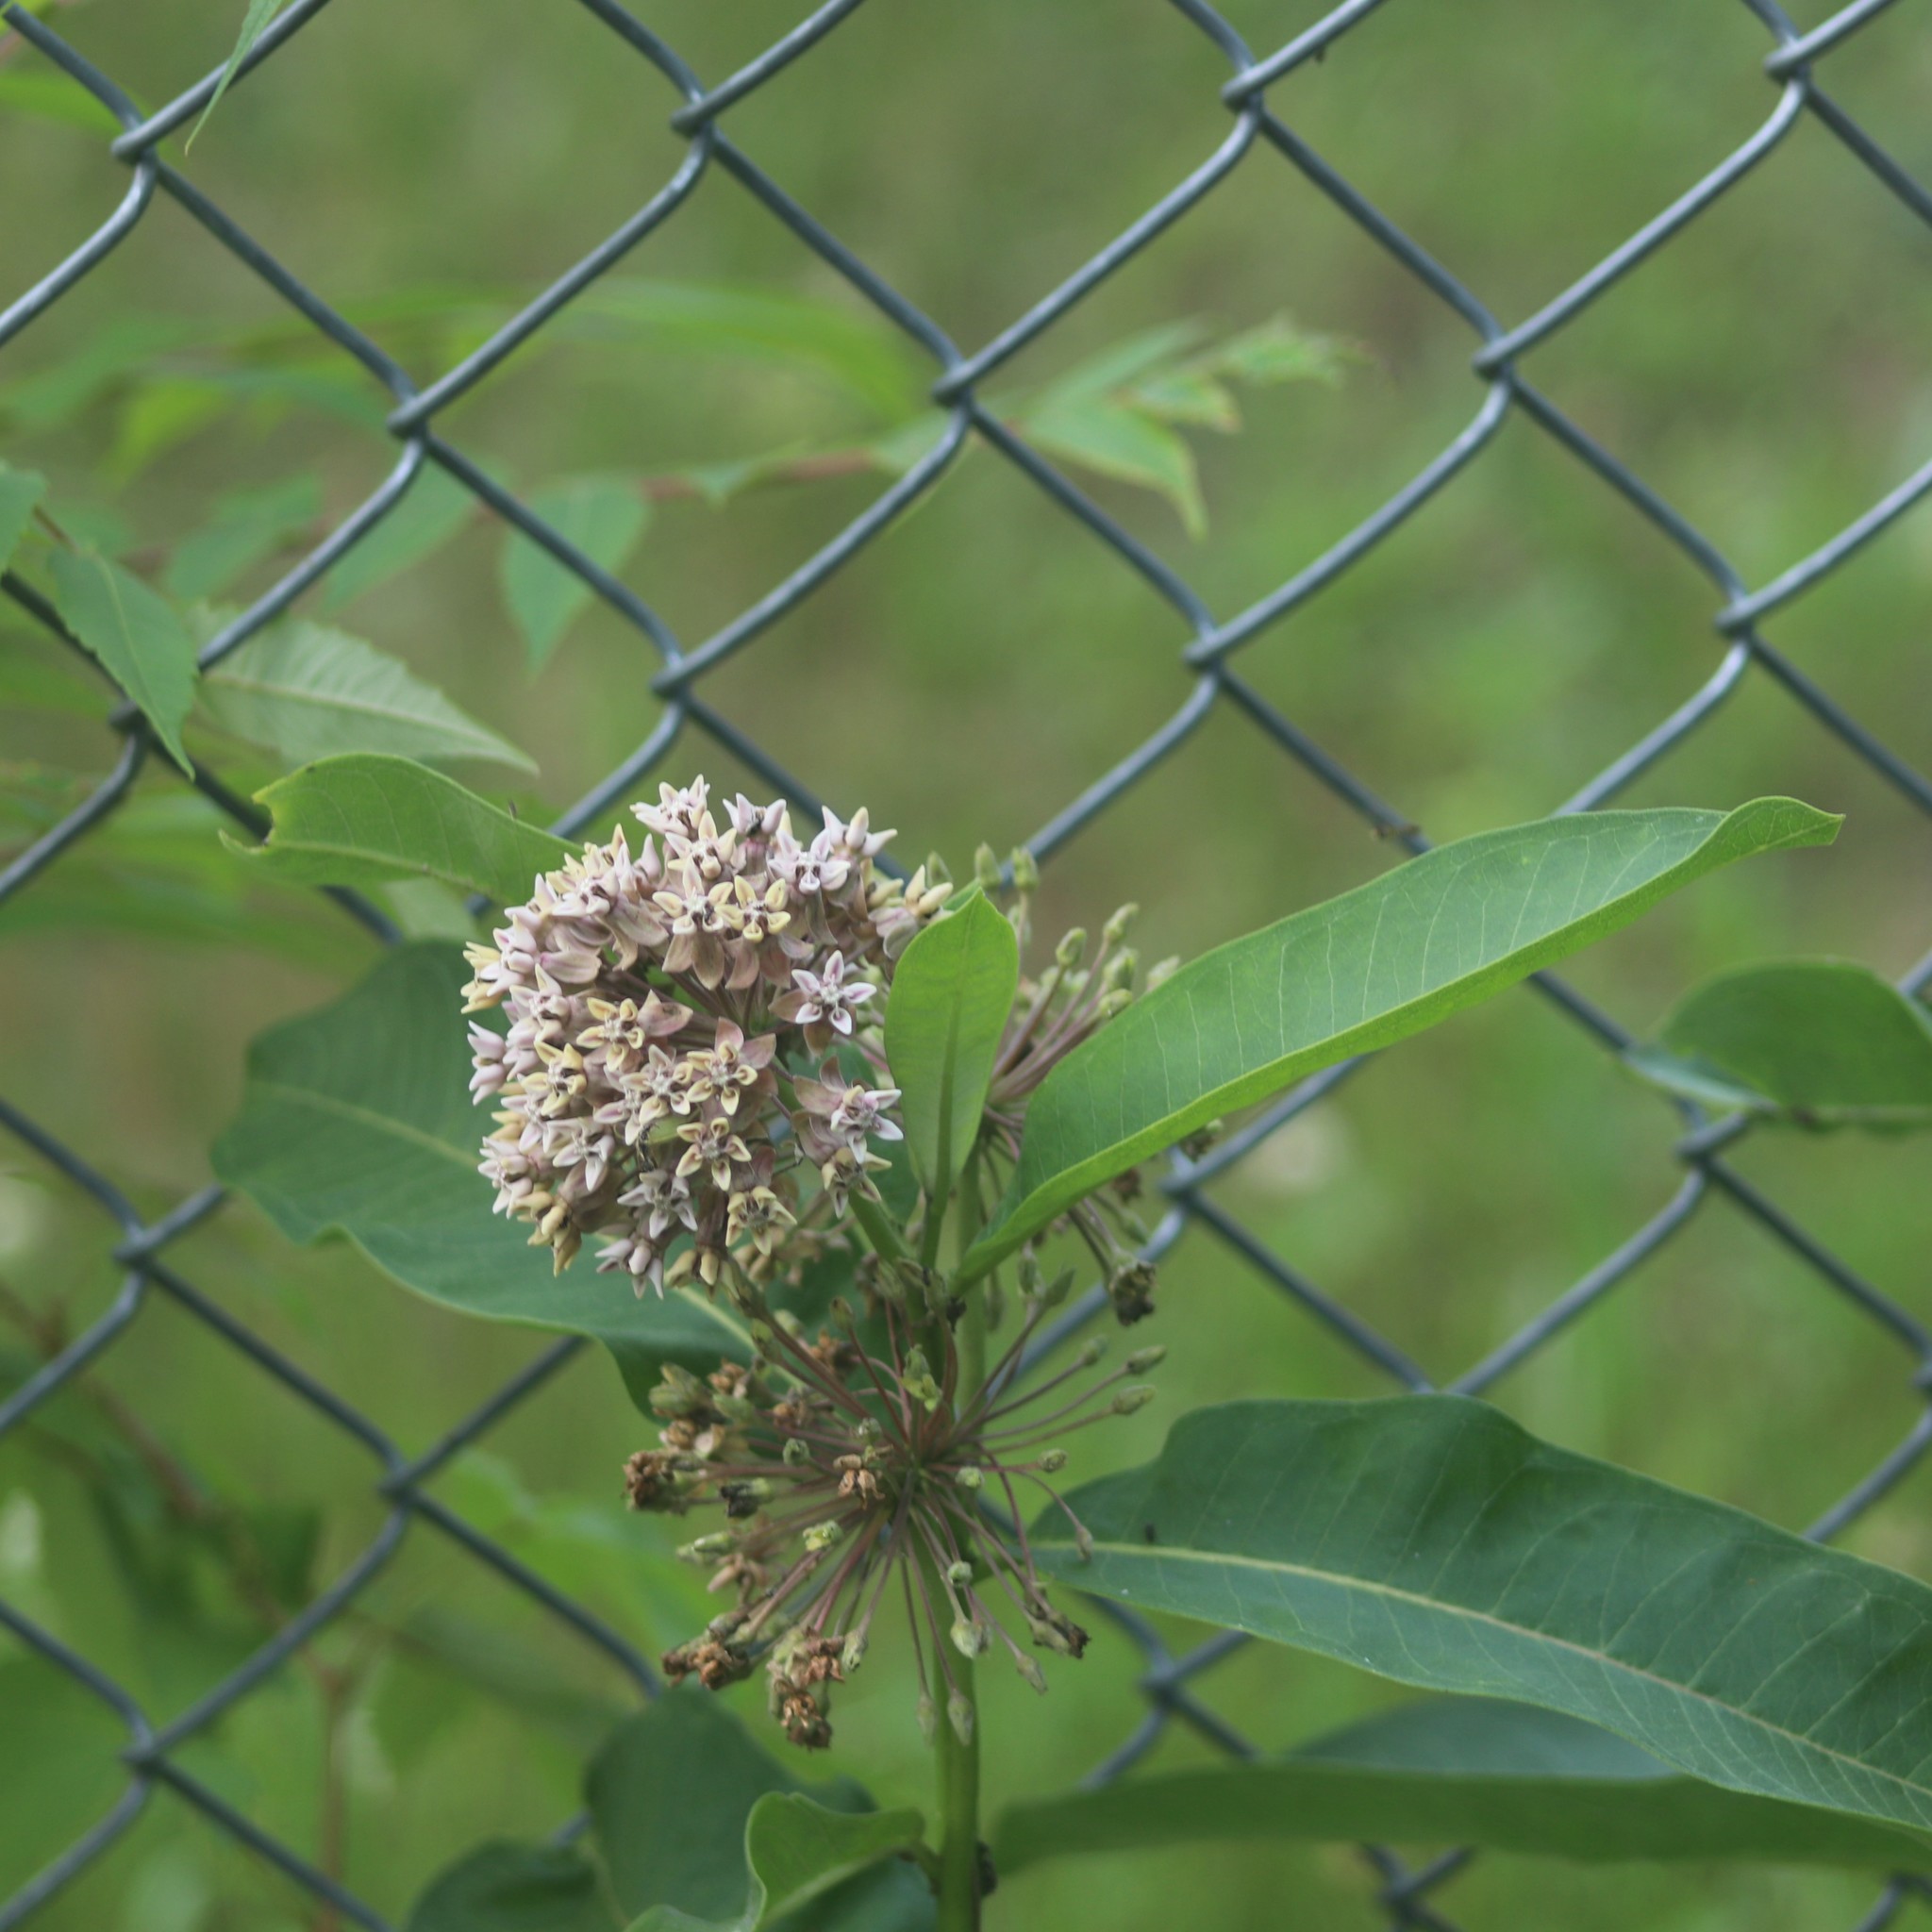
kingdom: Plantae
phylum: Tracheophyta
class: Magnoliopsida
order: Gentianales
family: Apocynaceae
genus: Asclepias
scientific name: Asclepias syriaca
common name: Common milkweed
